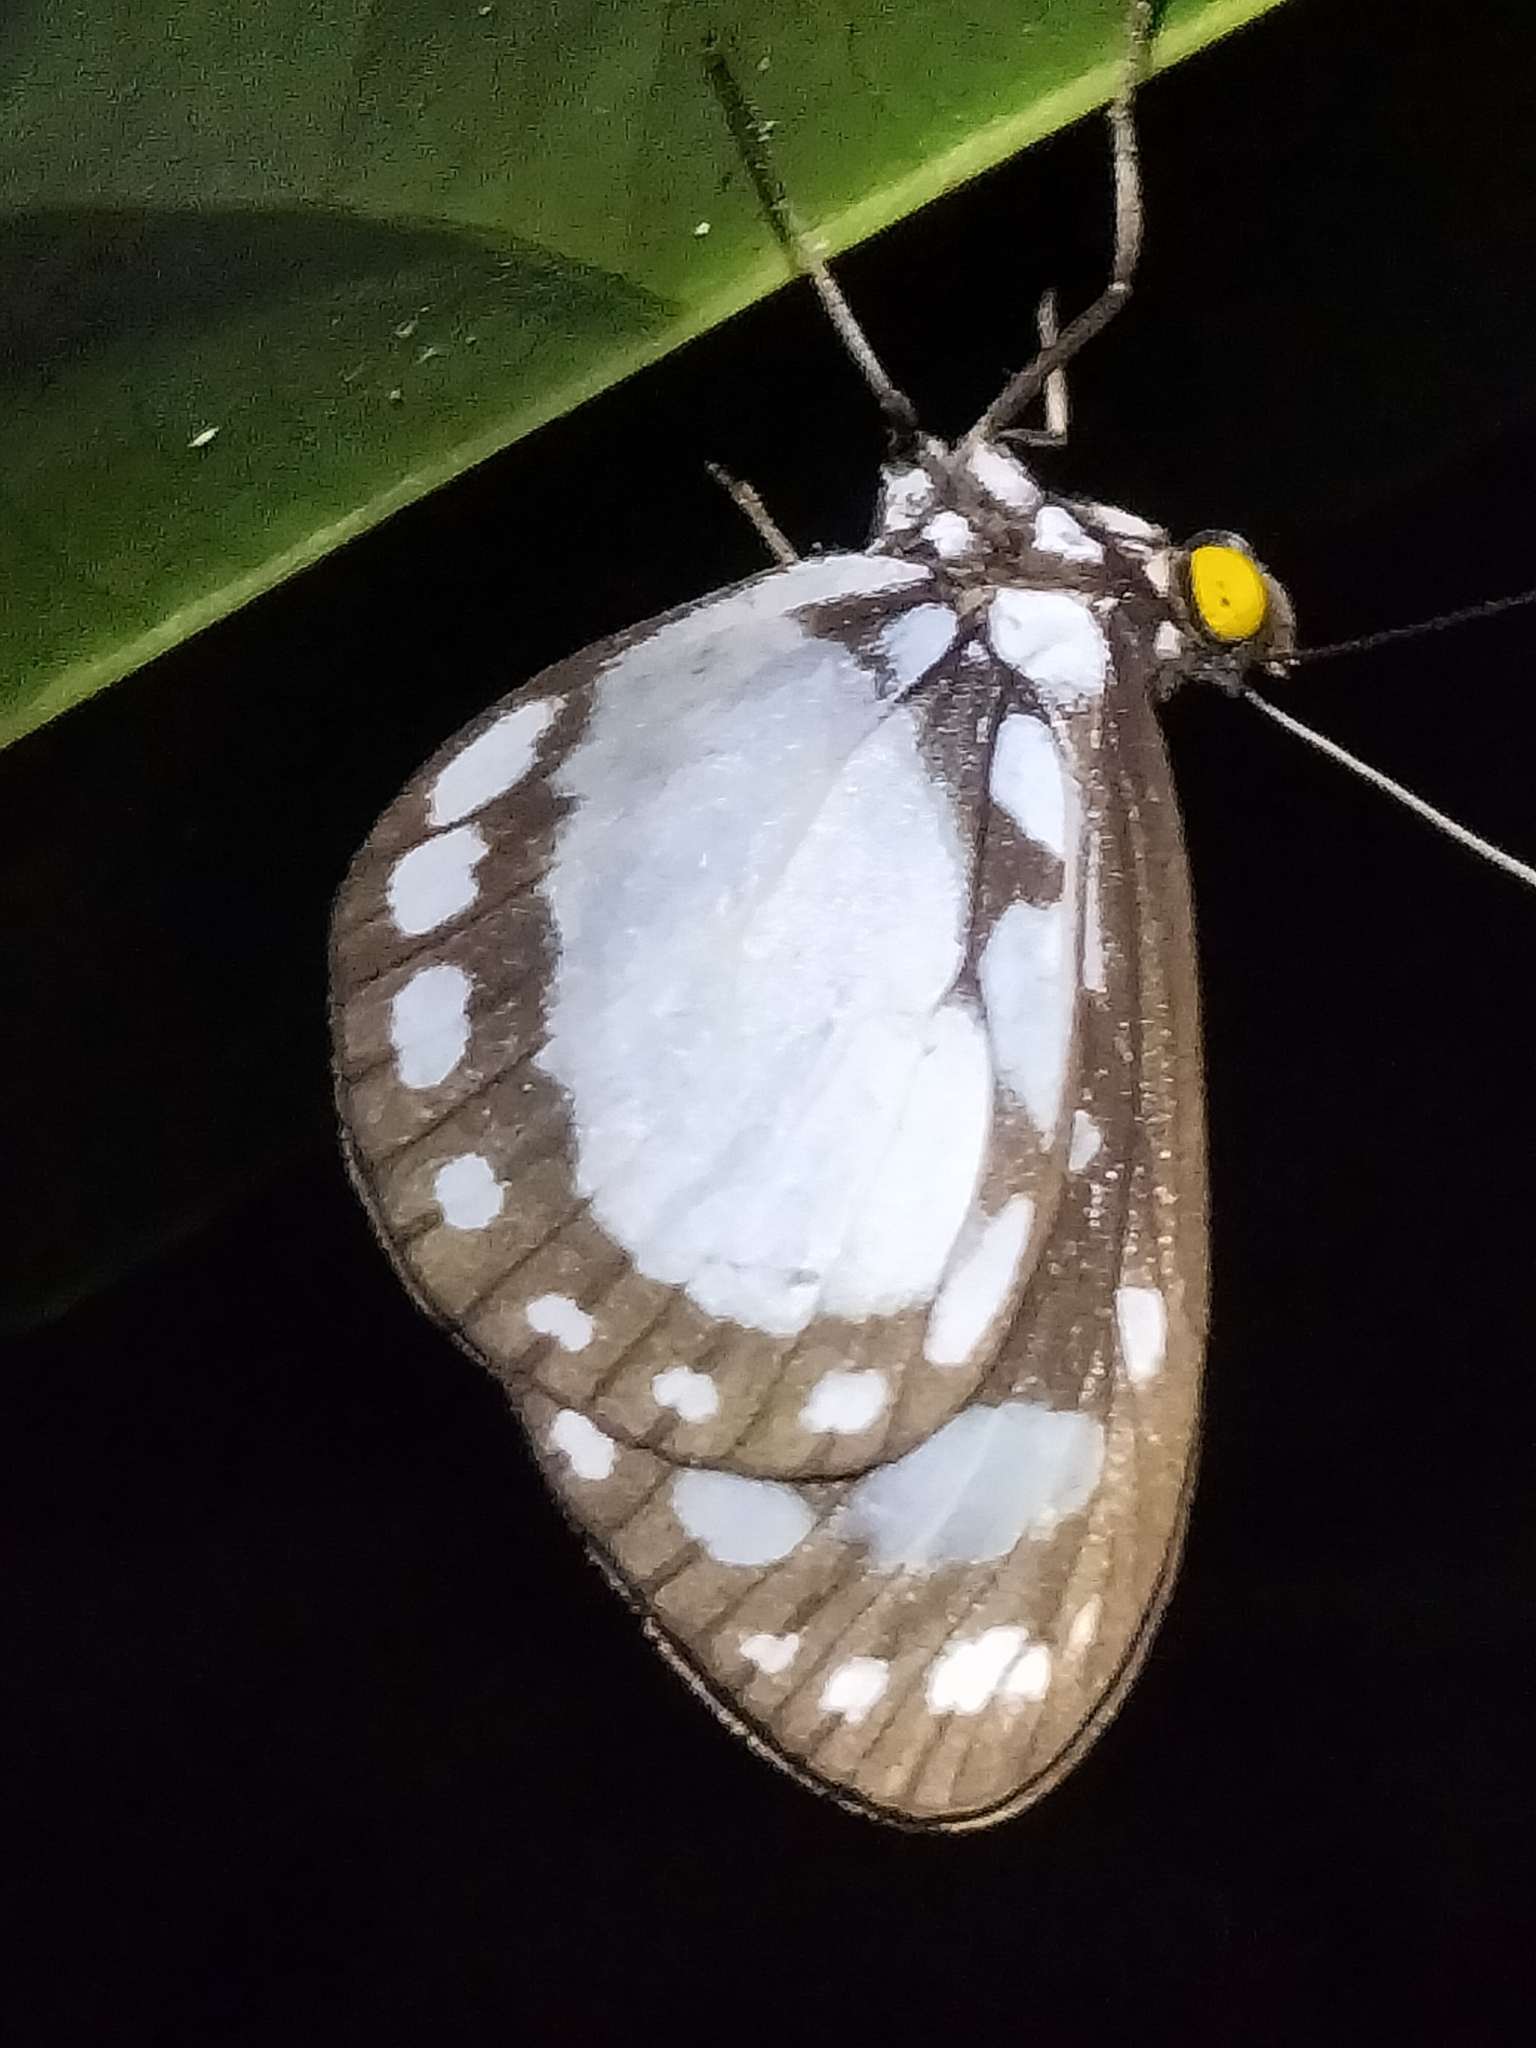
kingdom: Animalia
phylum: Arthropoda
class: Insecta
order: Lepidoptera
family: Nymphalidae
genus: Tellervo
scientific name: Tellervo zoilus
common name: Hamadryad
